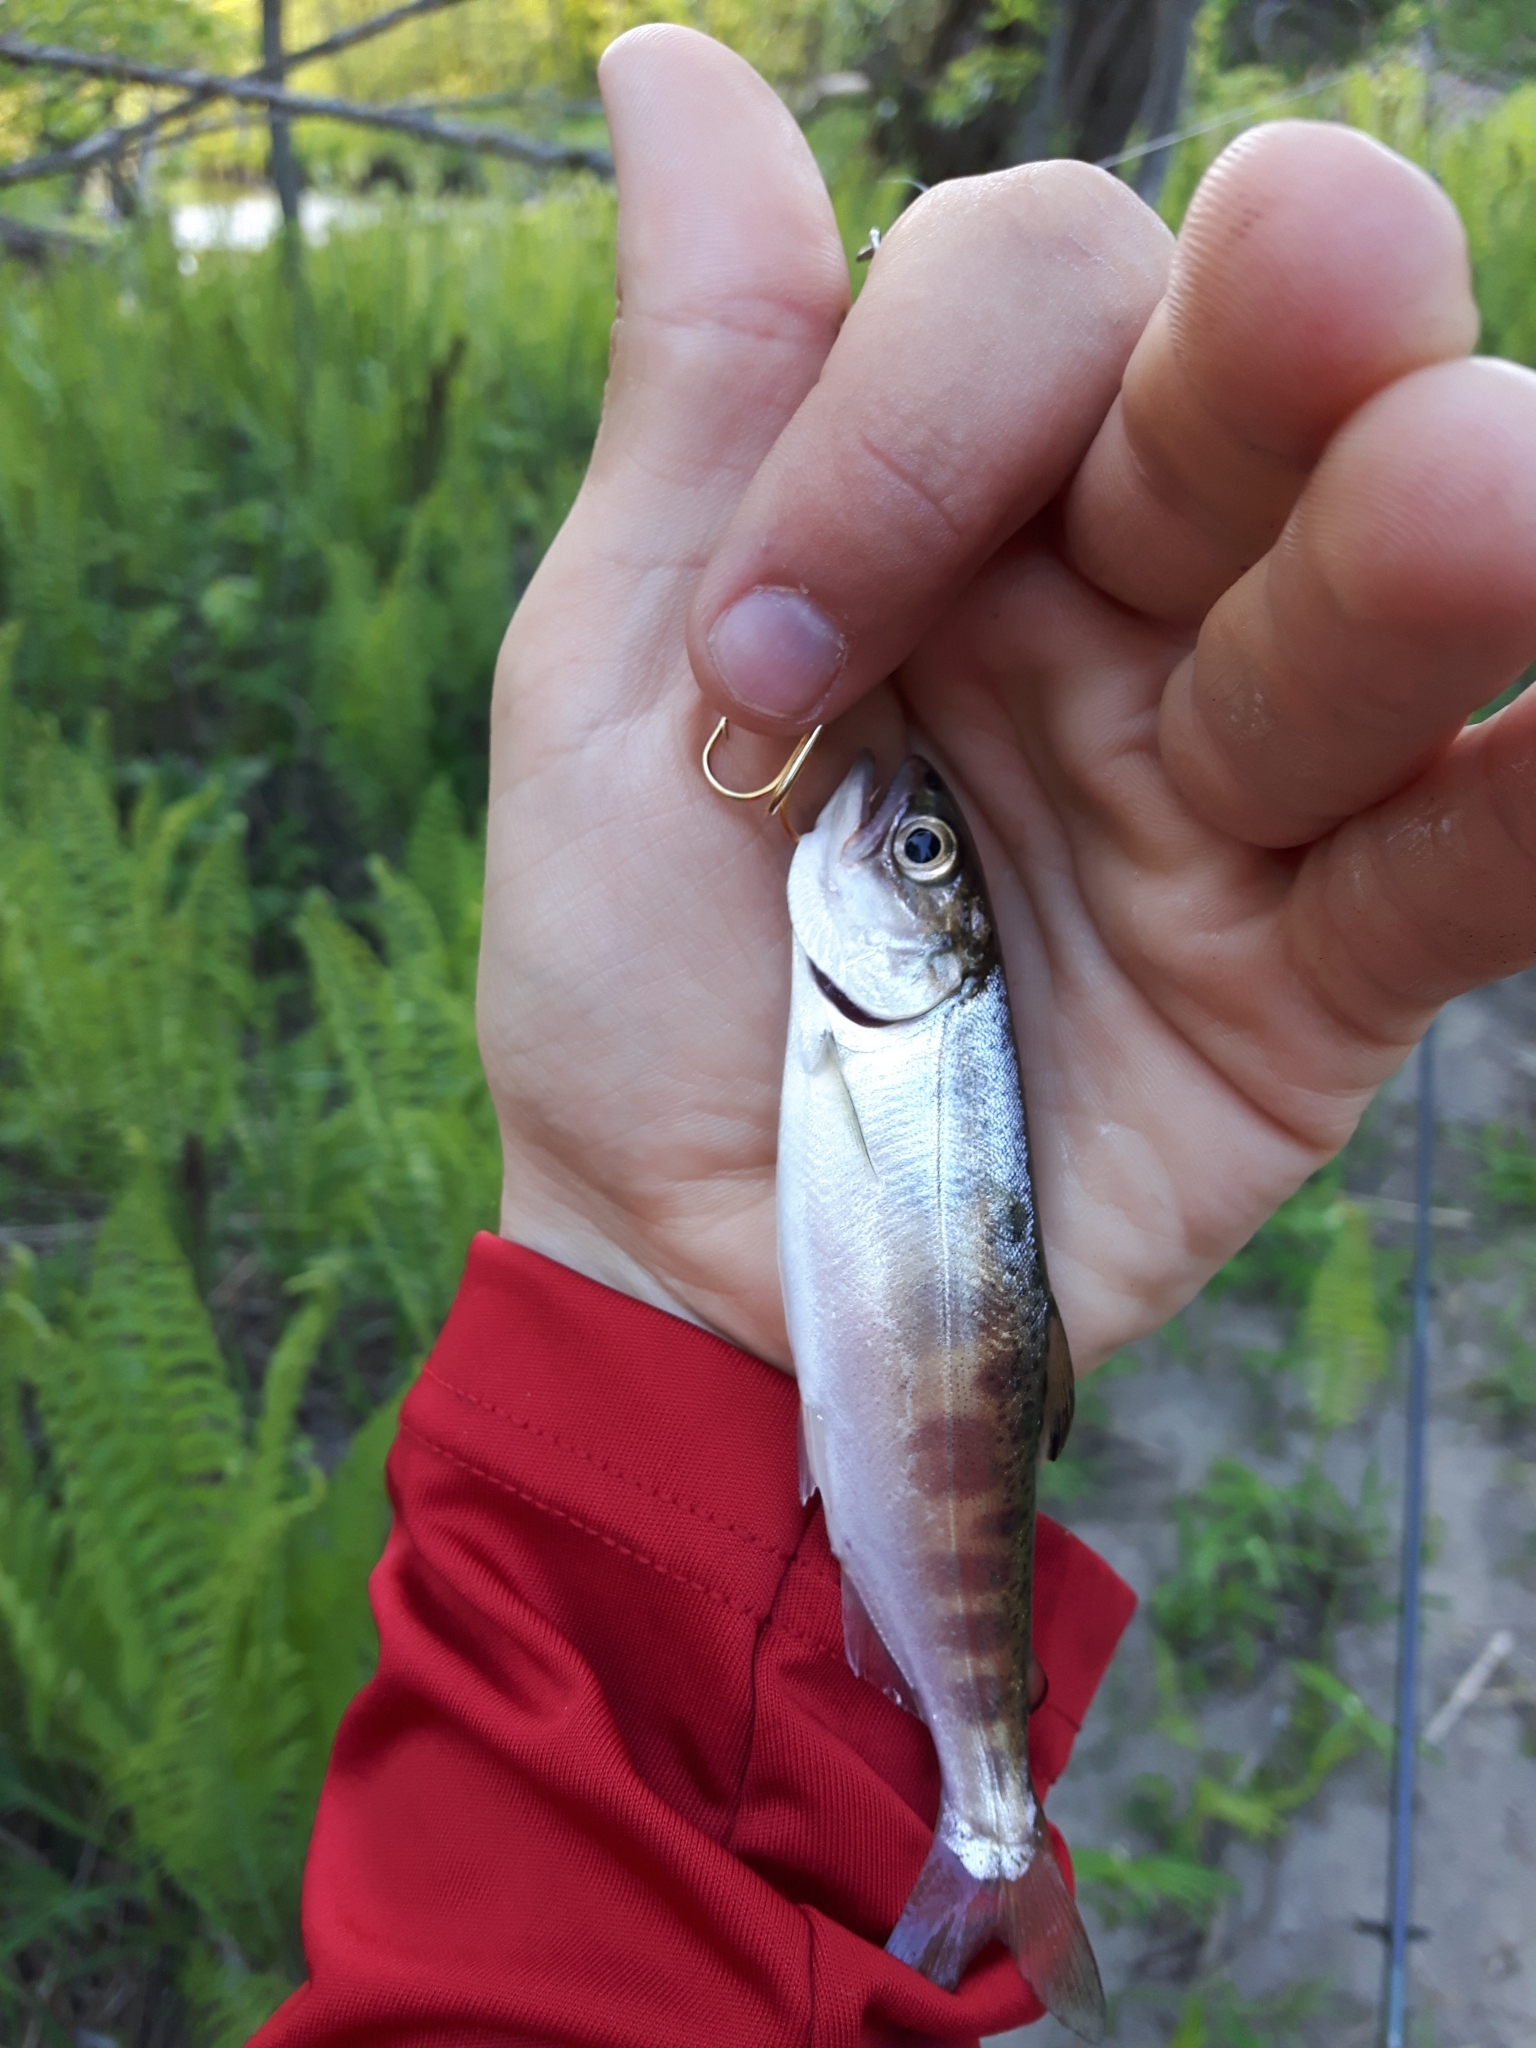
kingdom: Animalia
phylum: Chordata
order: Salmoniformes
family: Salmonidae
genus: Oncorhynchus
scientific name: Oncorhynchus tshawytscha
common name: Chinook salmon
